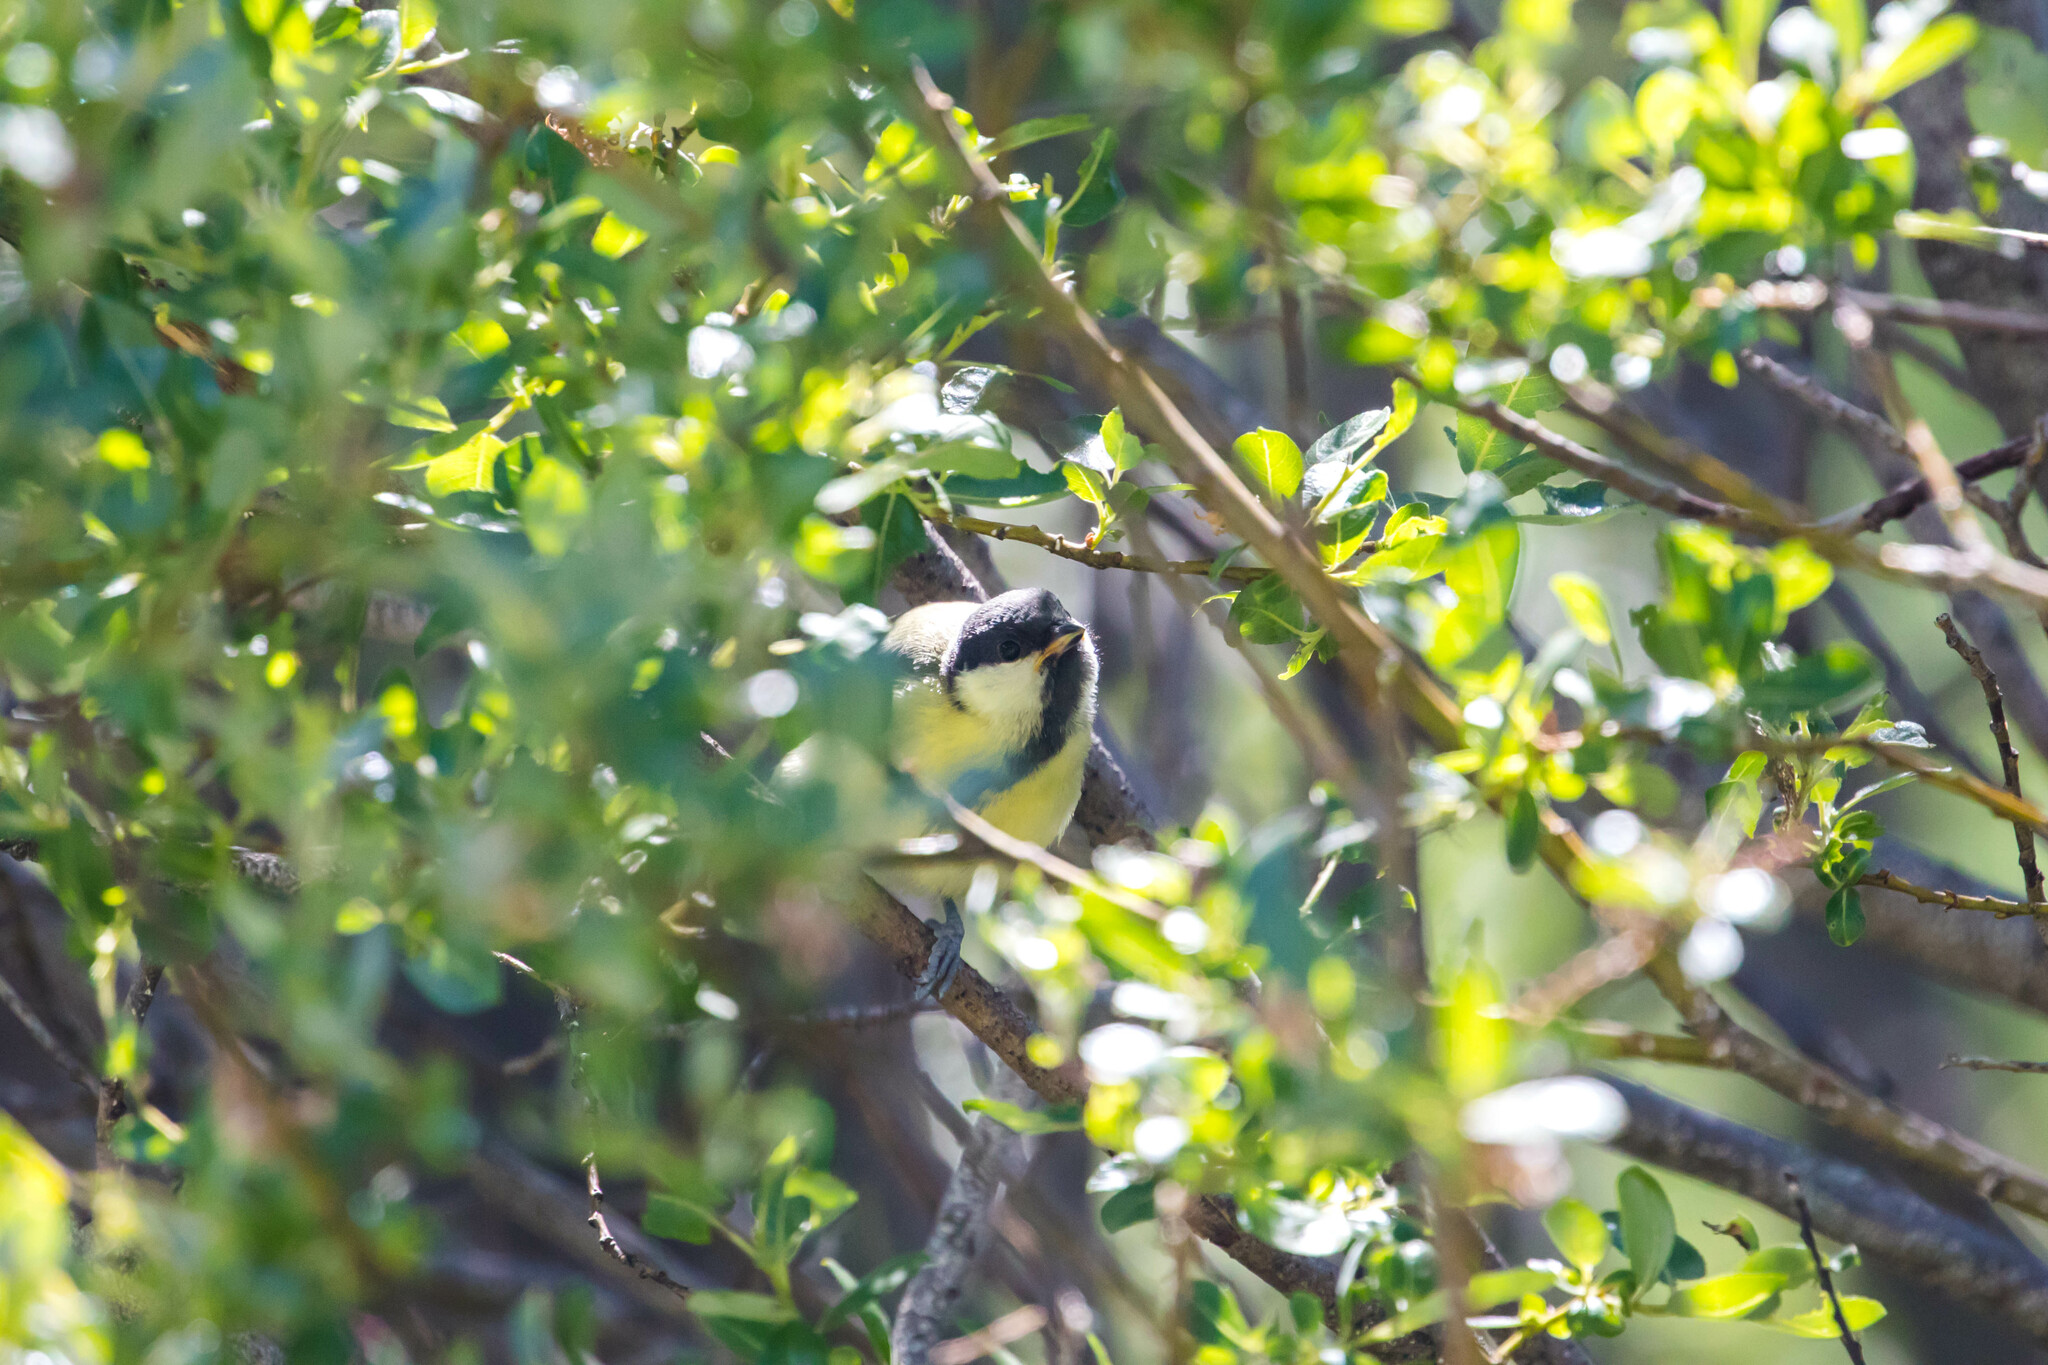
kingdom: Animalia
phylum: Chordata
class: Aves
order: Passeriformes
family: Paridae
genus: Parus
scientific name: Parus major
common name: Great tit
